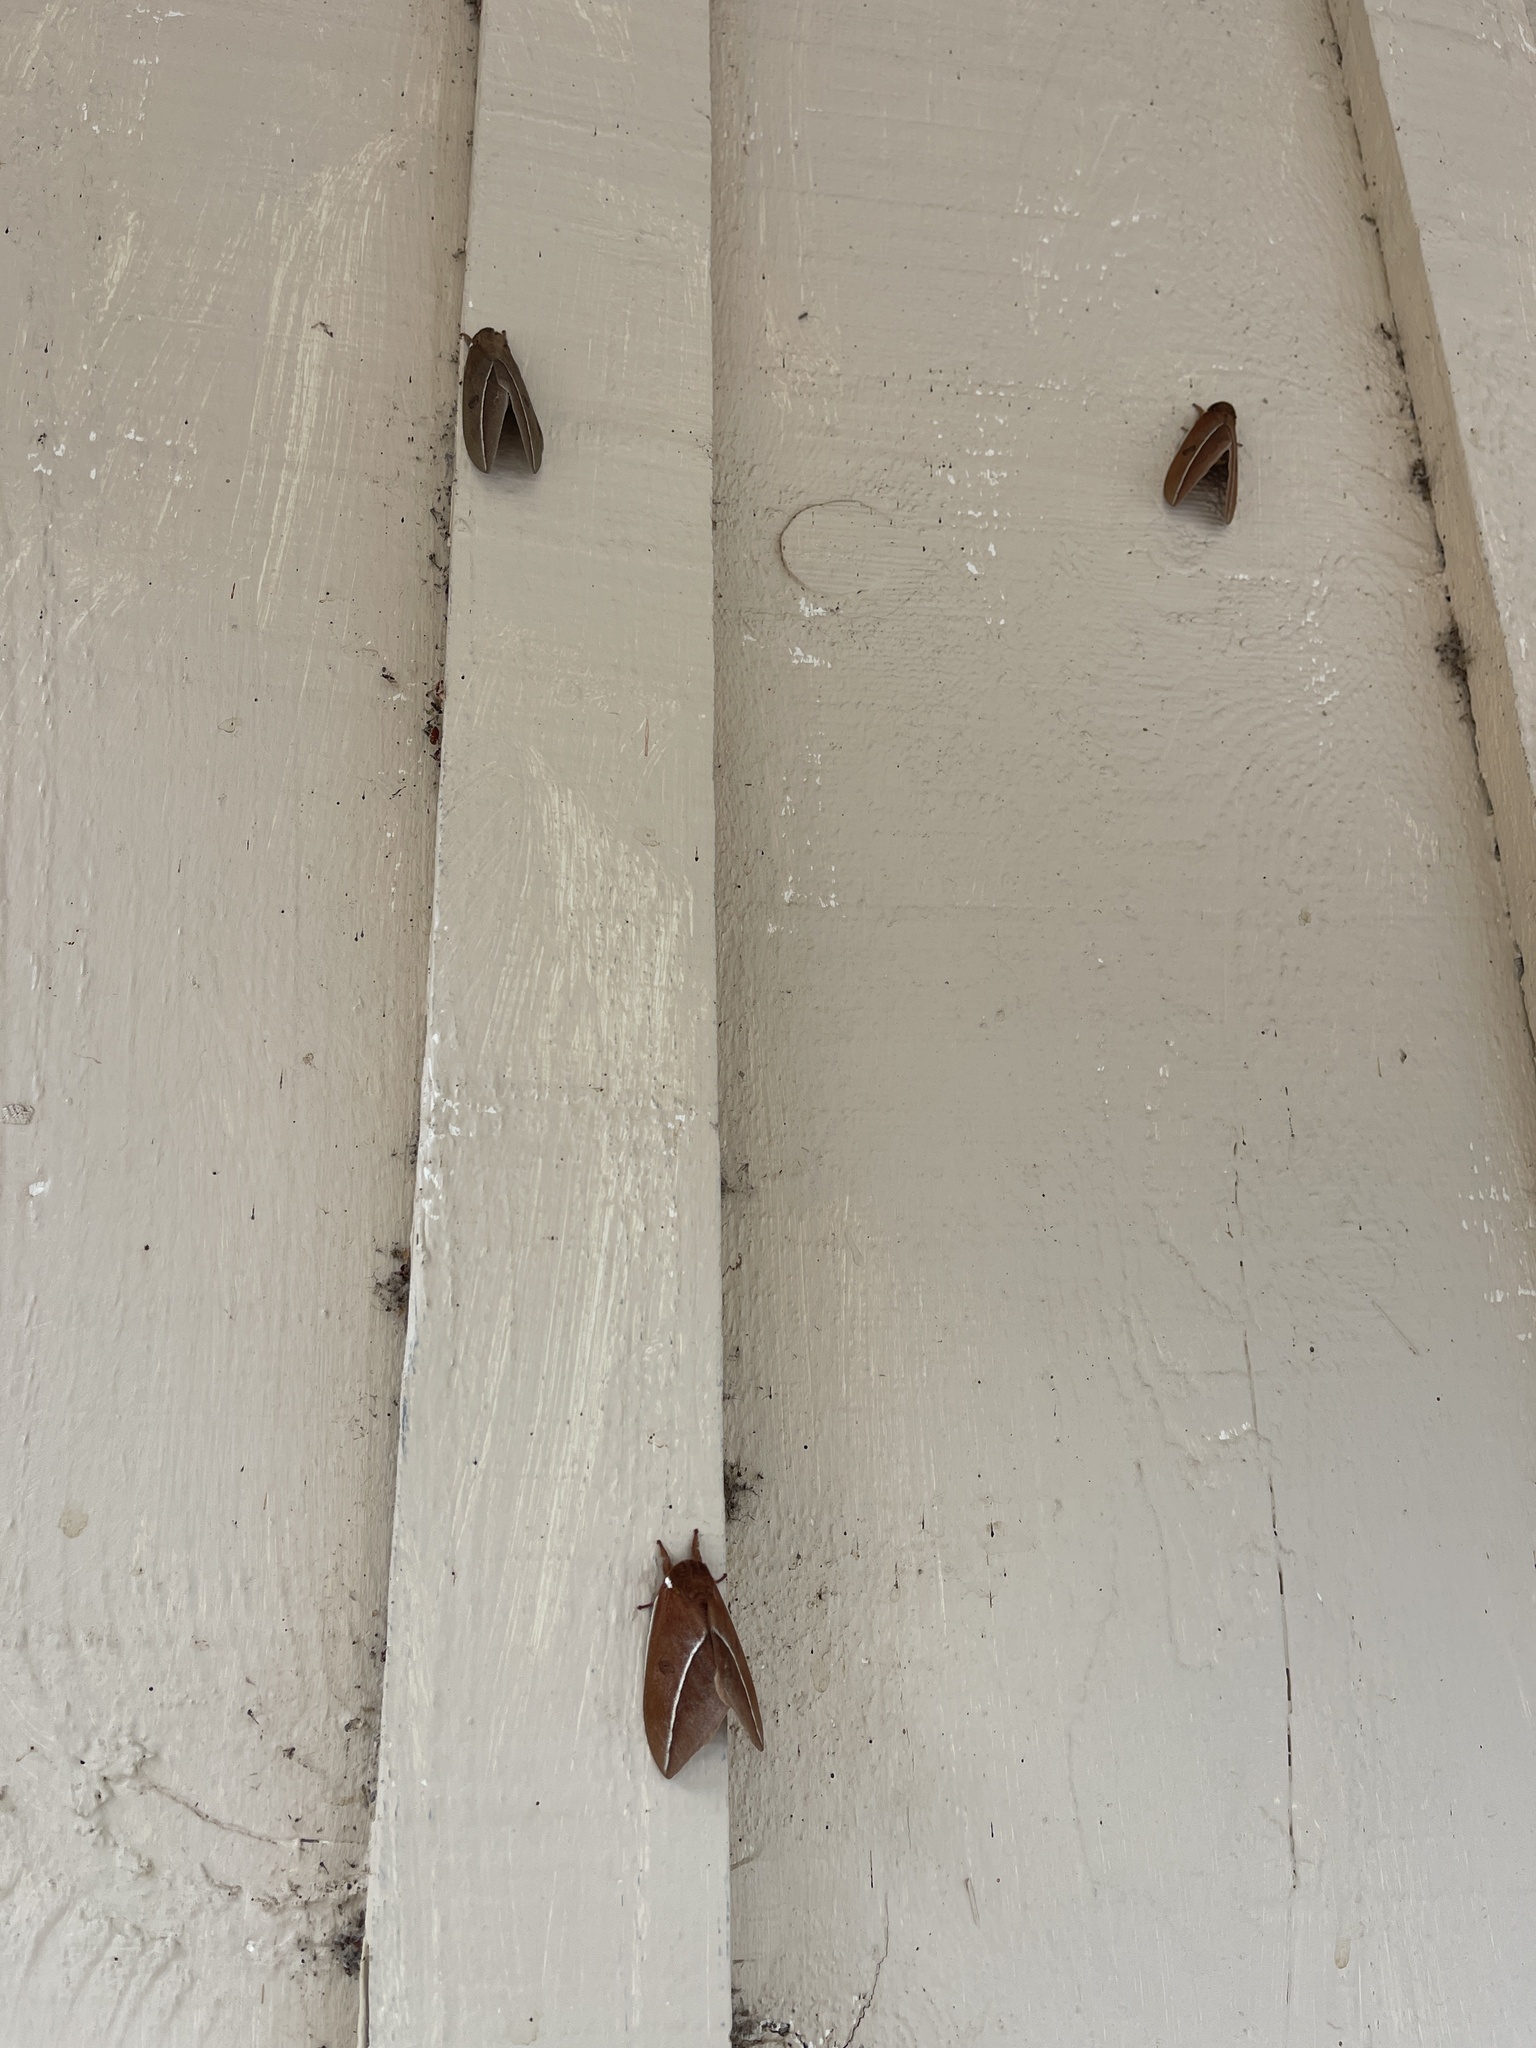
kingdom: Animalia
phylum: Arthropoda
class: Insecta
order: Lepidoptera
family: Saturniidae
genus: Automeris
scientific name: Automeris zephyria
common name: Zephyr eyed silkmoth
